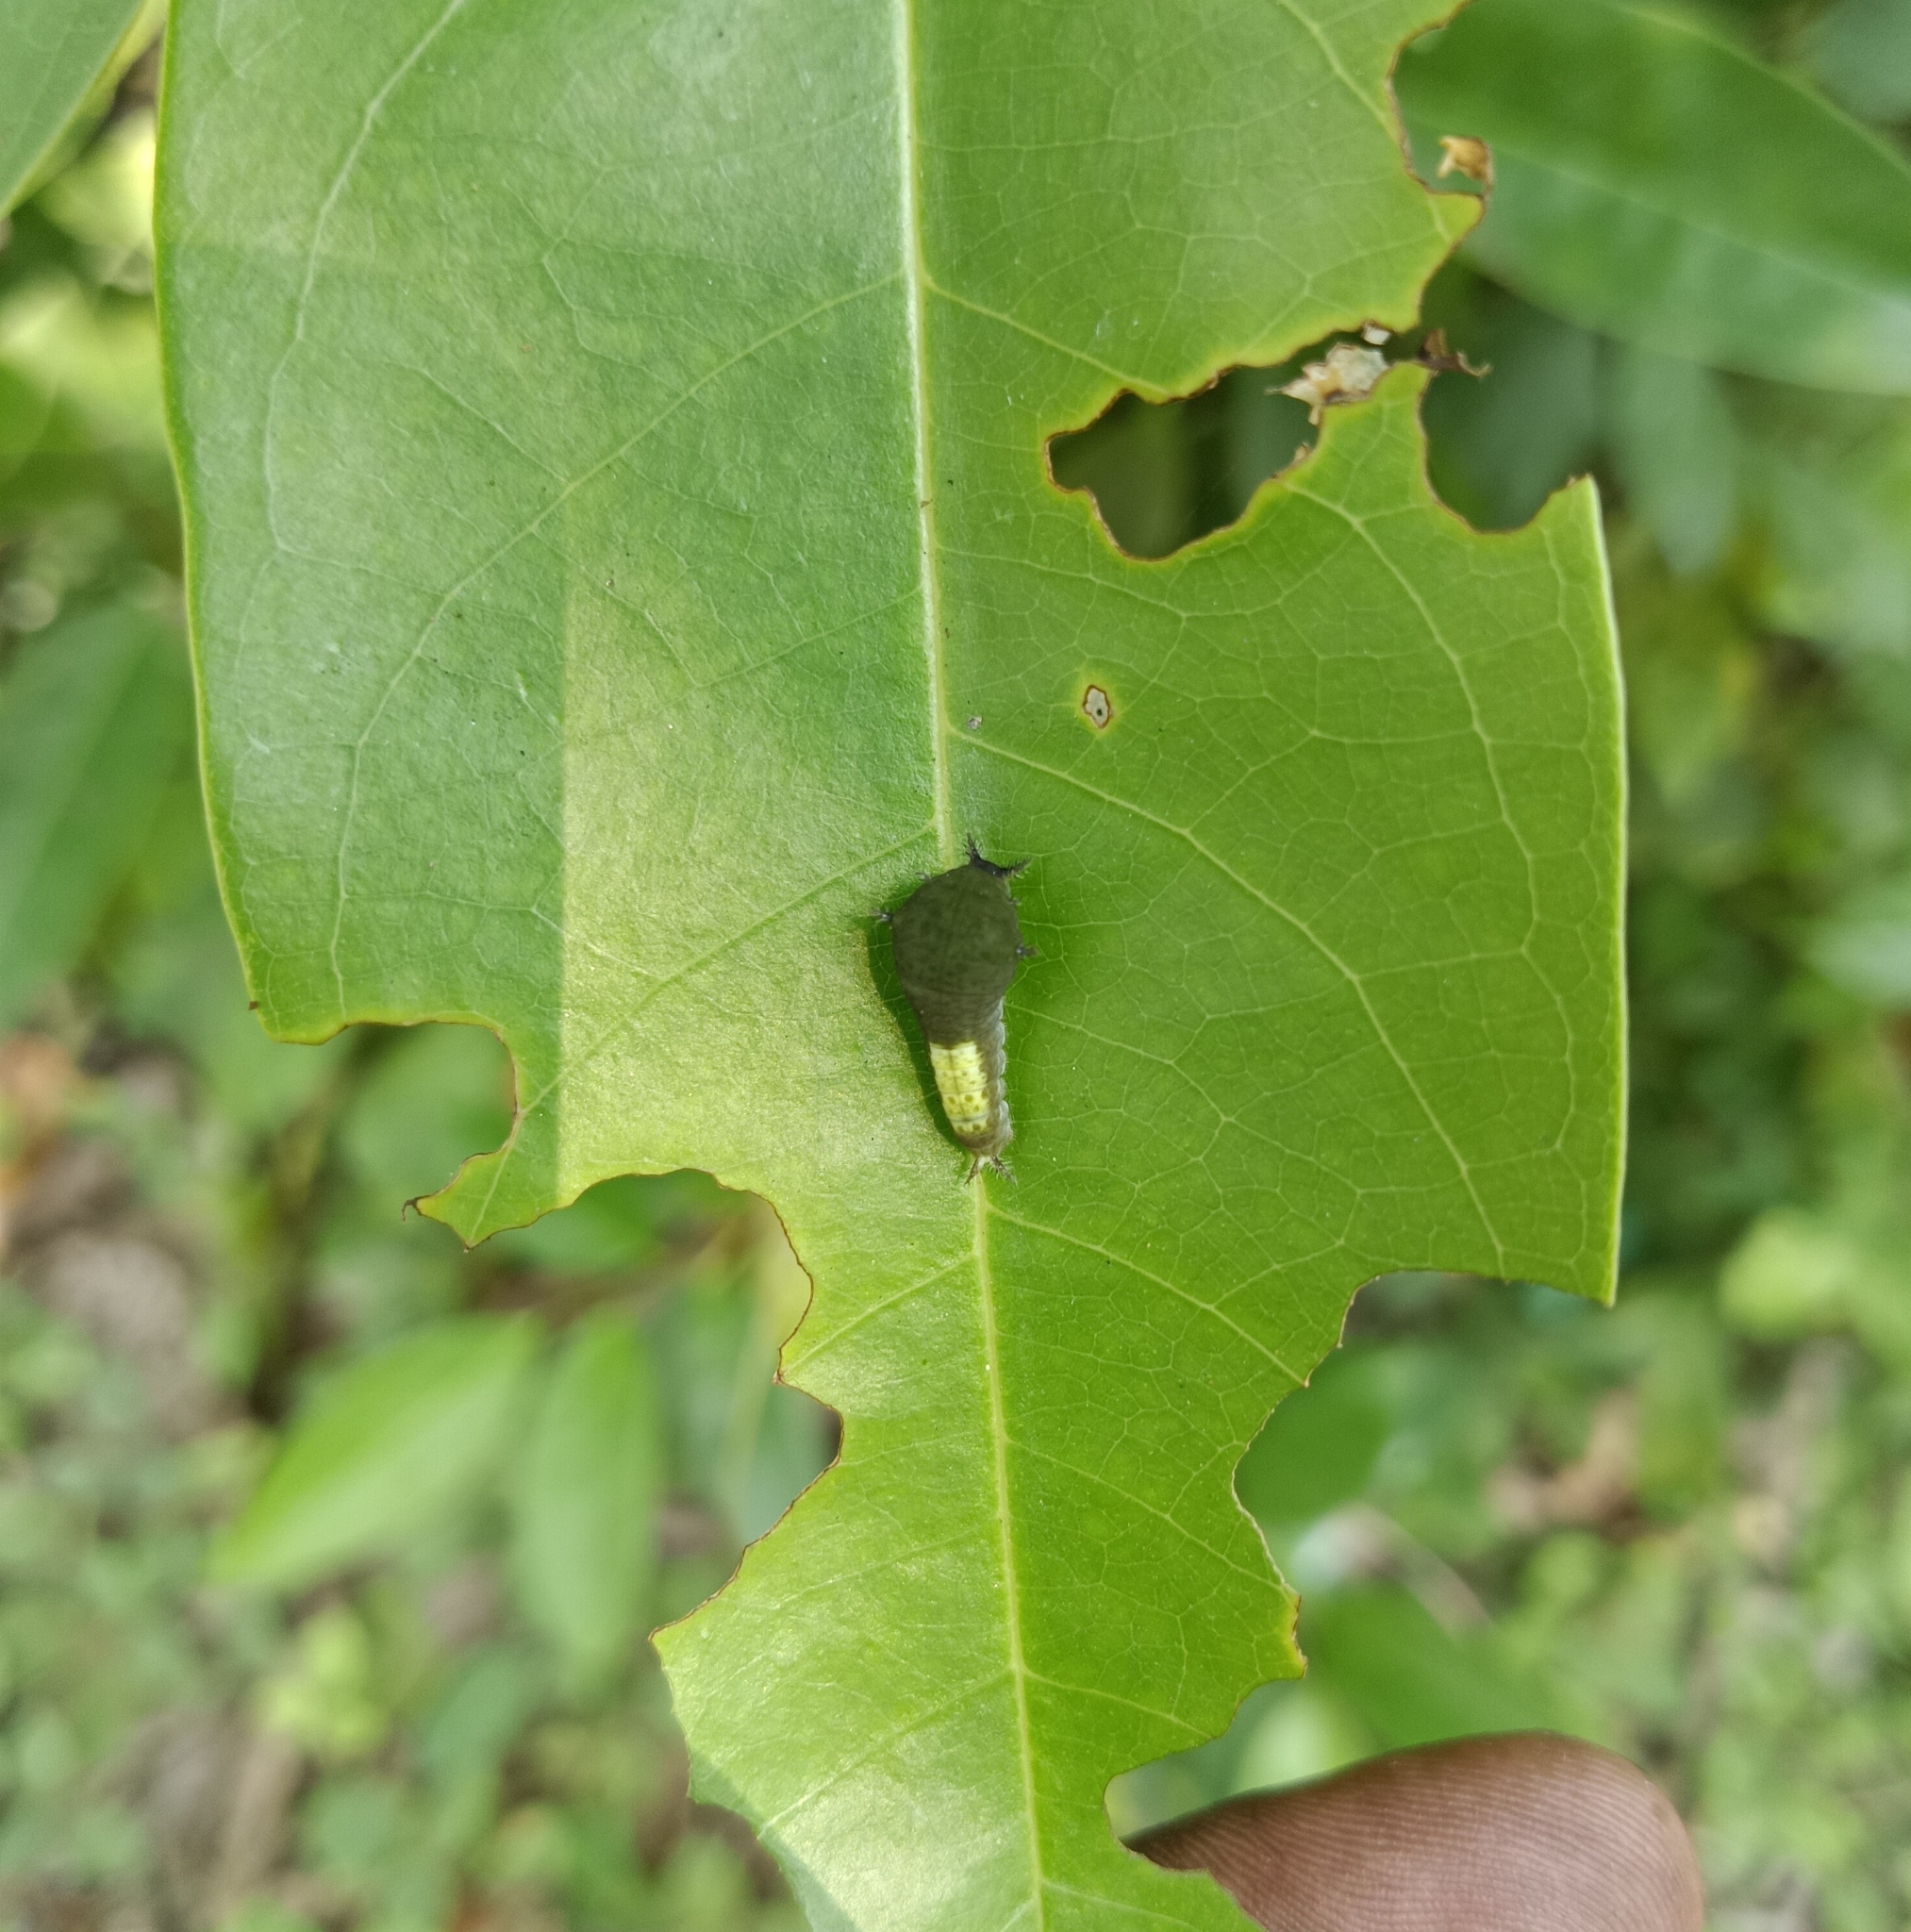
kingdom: Animalia
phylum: Arthropoda
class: Insecta
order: Lepidoptera
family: Papilionidae
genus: Graphium
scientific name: Graphium agamemnon
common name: Tailed jay
